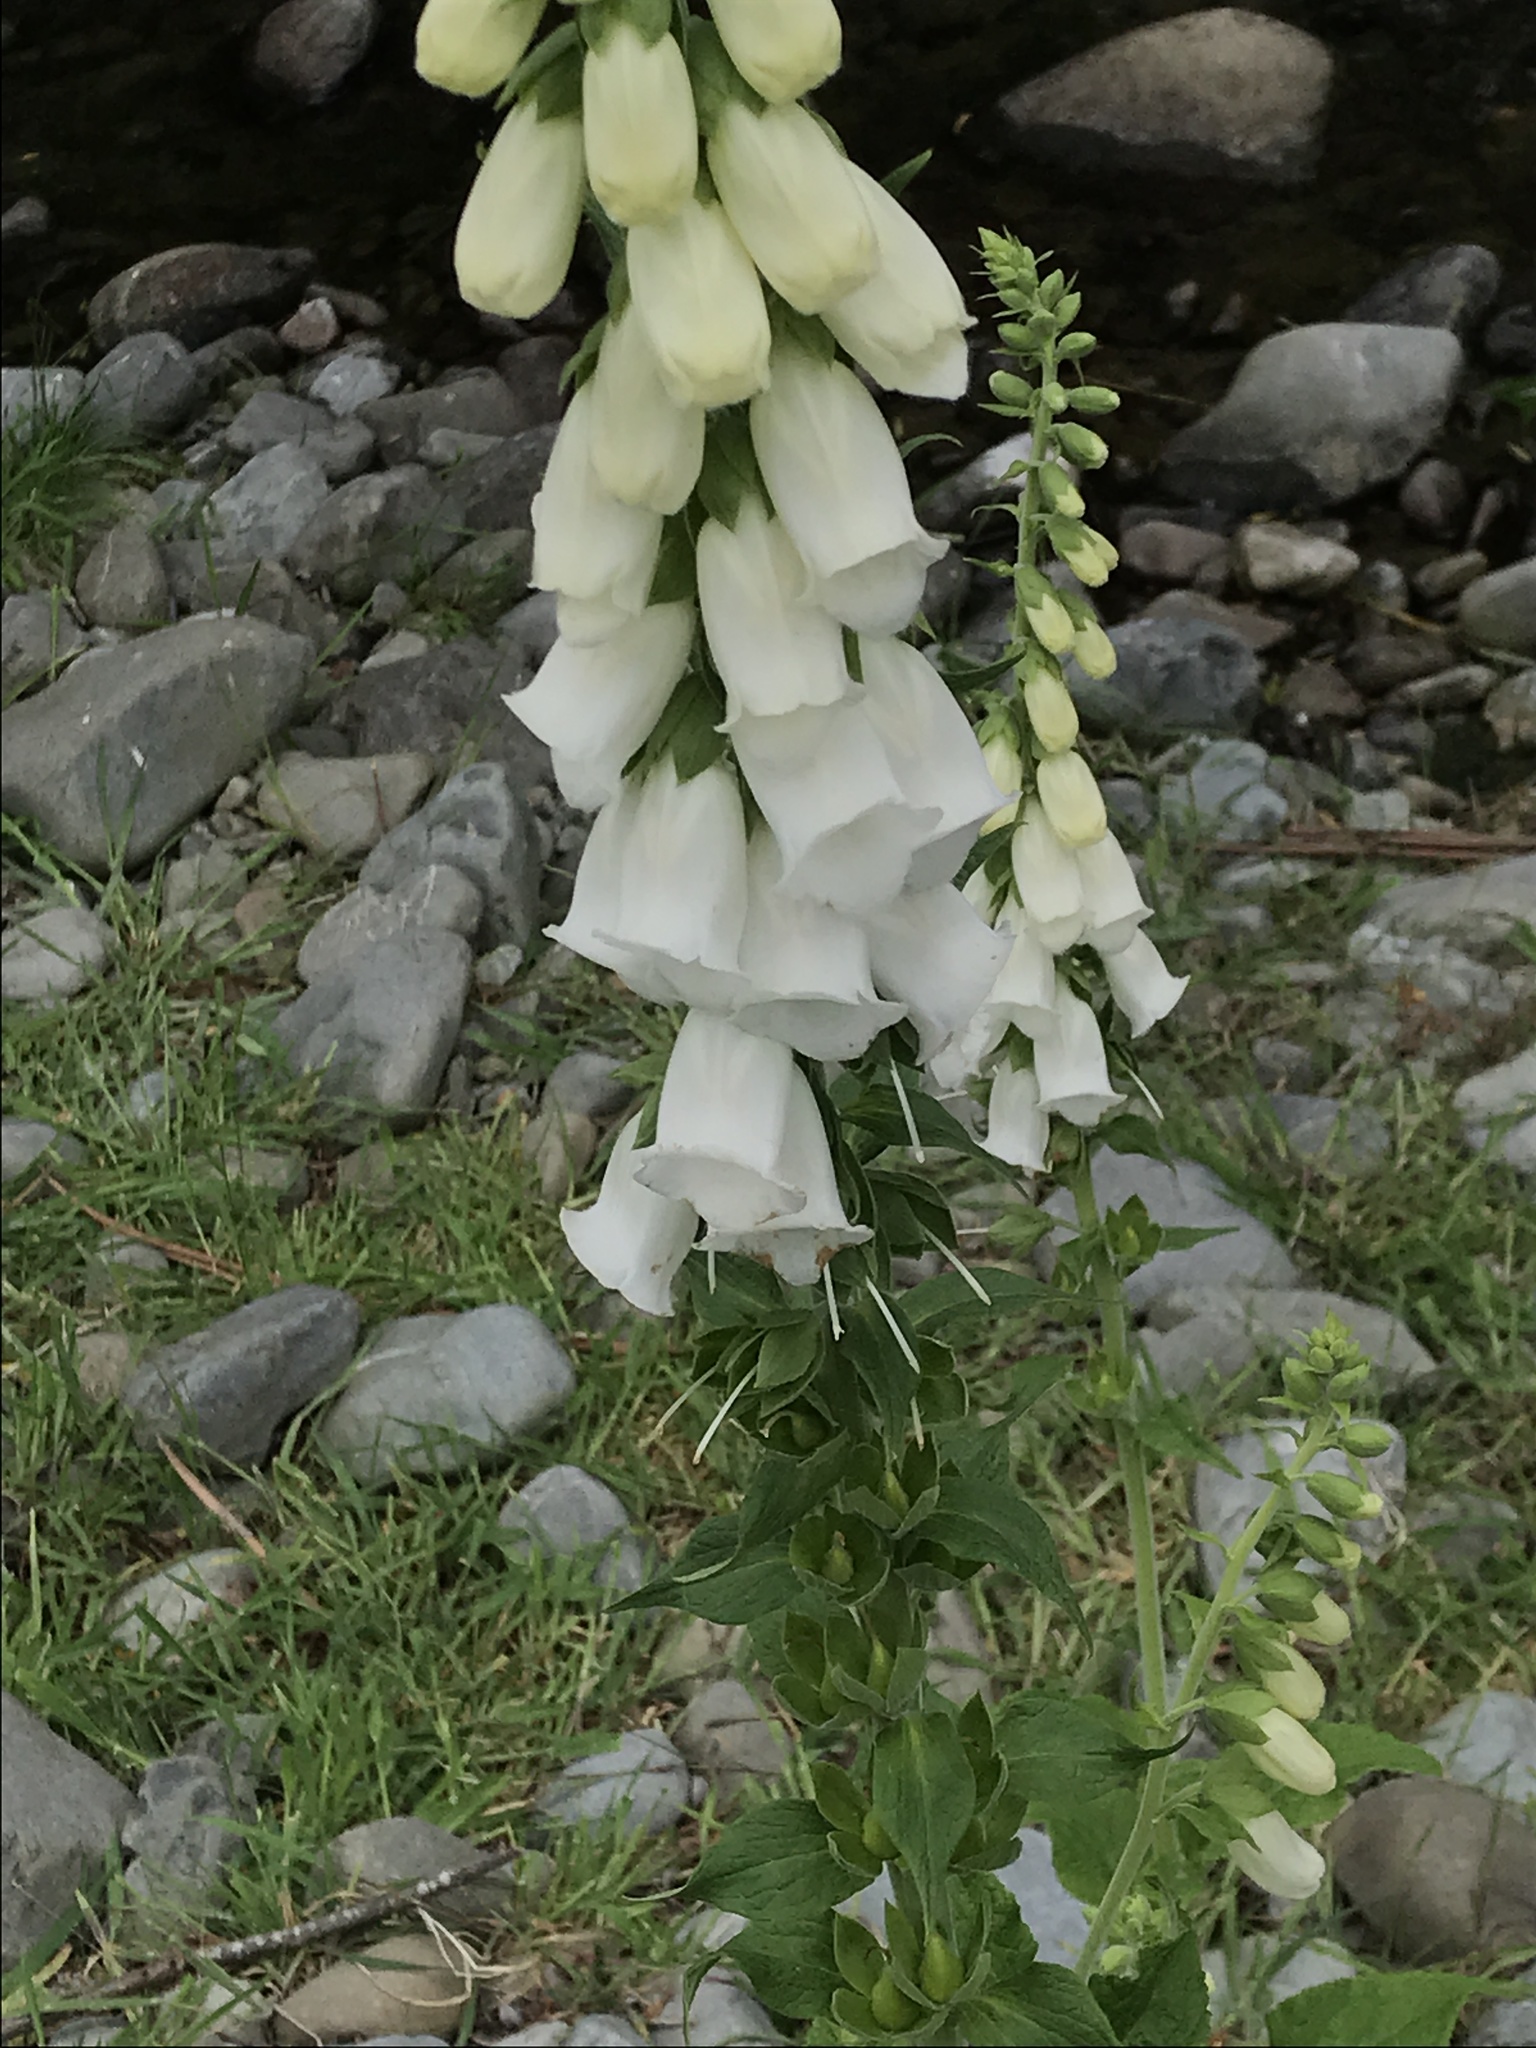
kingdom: Plantae
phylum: Tracheophyta
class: Magnoliopsida
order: Lamiales
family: Plantaginaceae
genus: Digitalis
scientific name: Digitalis purpurea
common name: Foxglove
